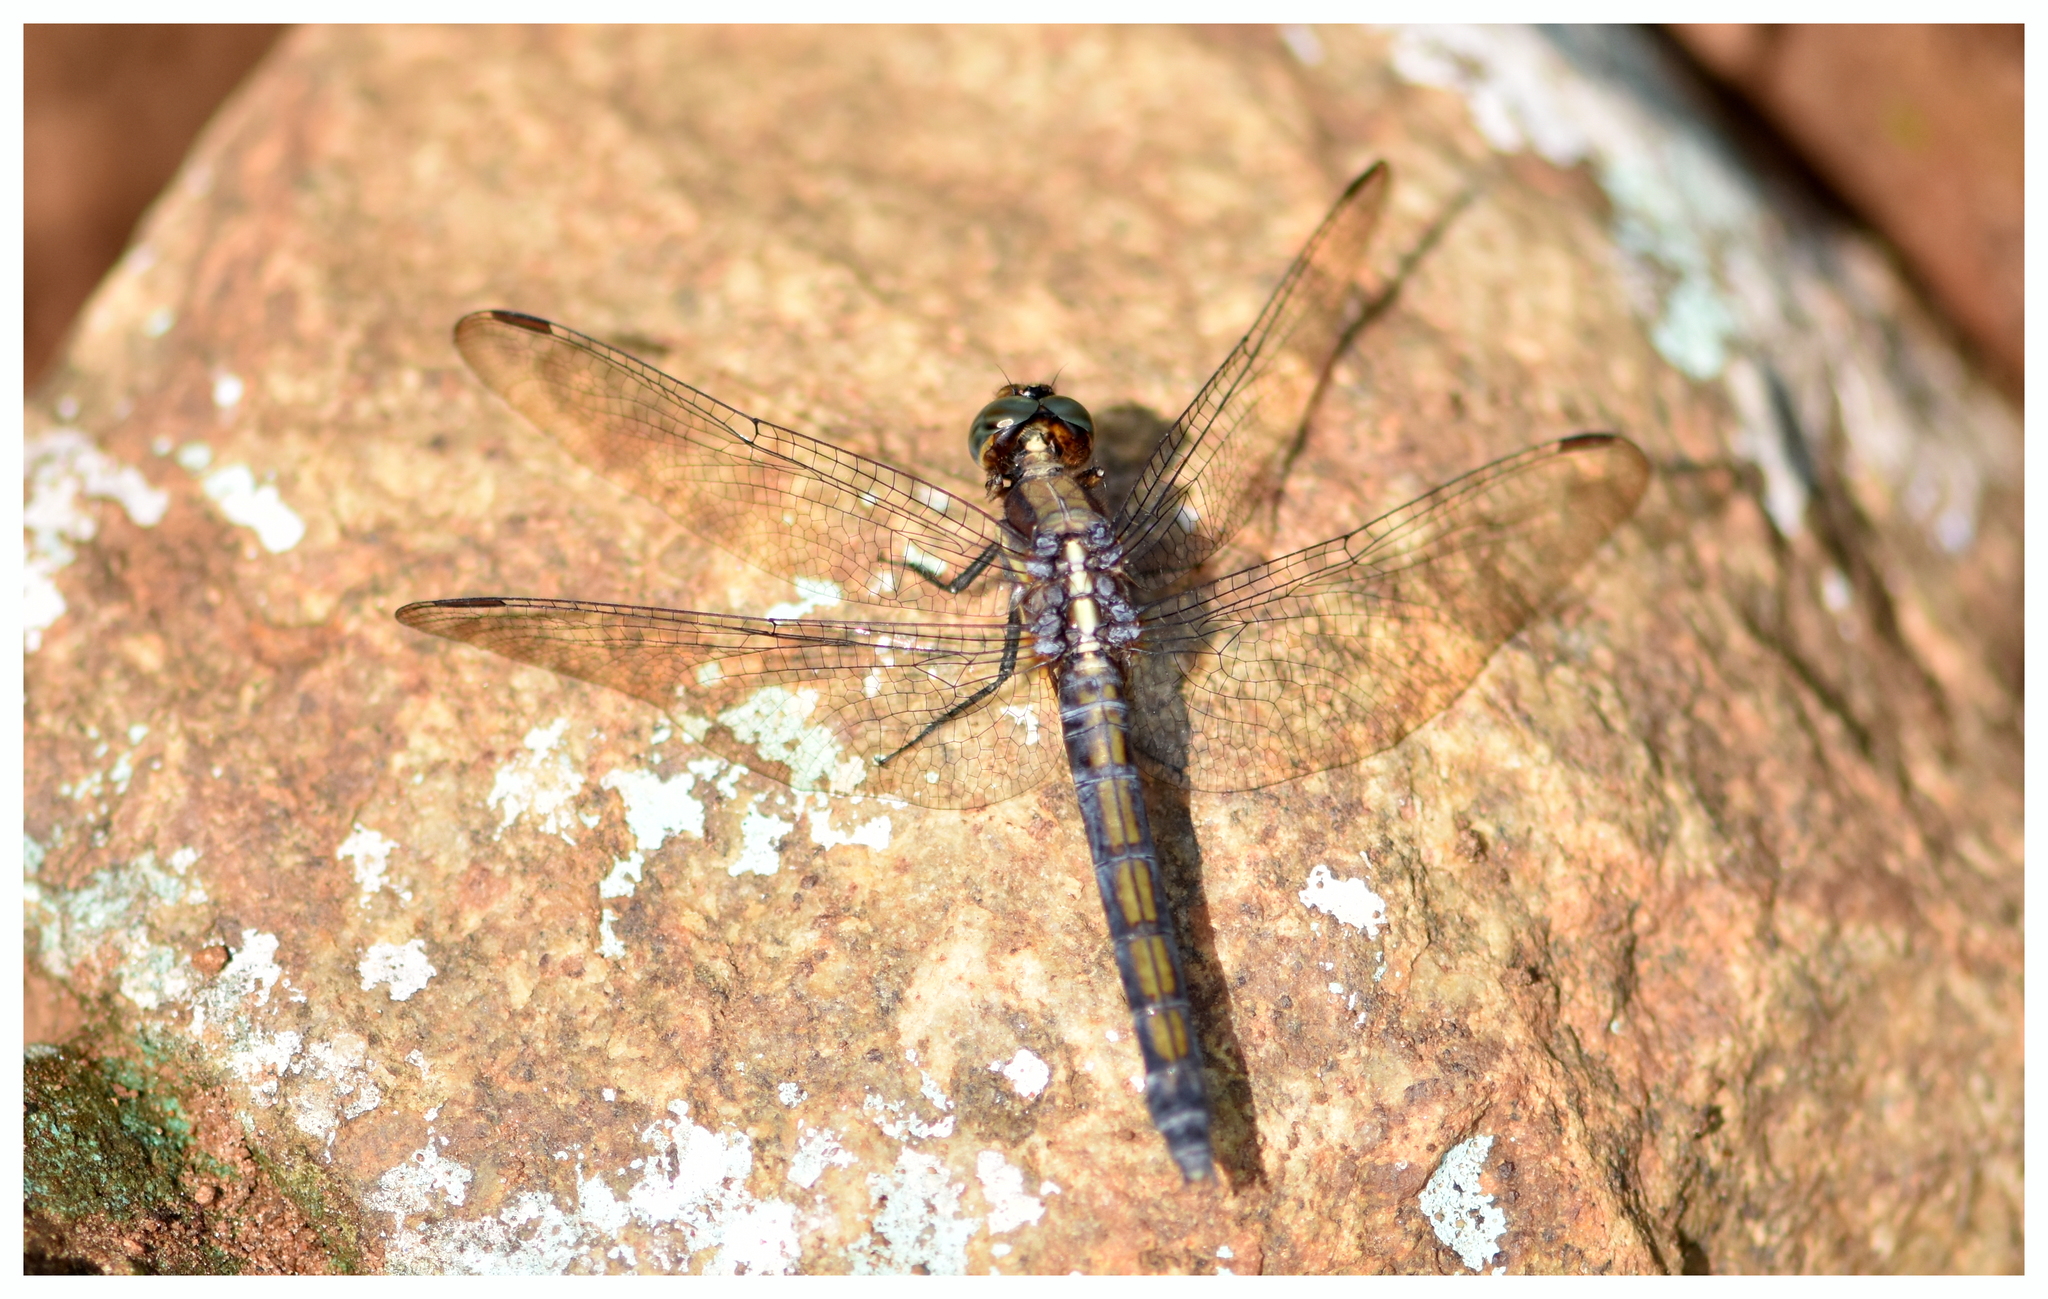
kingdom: Animalia
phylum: Arthropoda
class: Insecta
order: Odonata
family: Libellulidae
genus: Orthetrum
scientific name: Orthetrum glaucum
